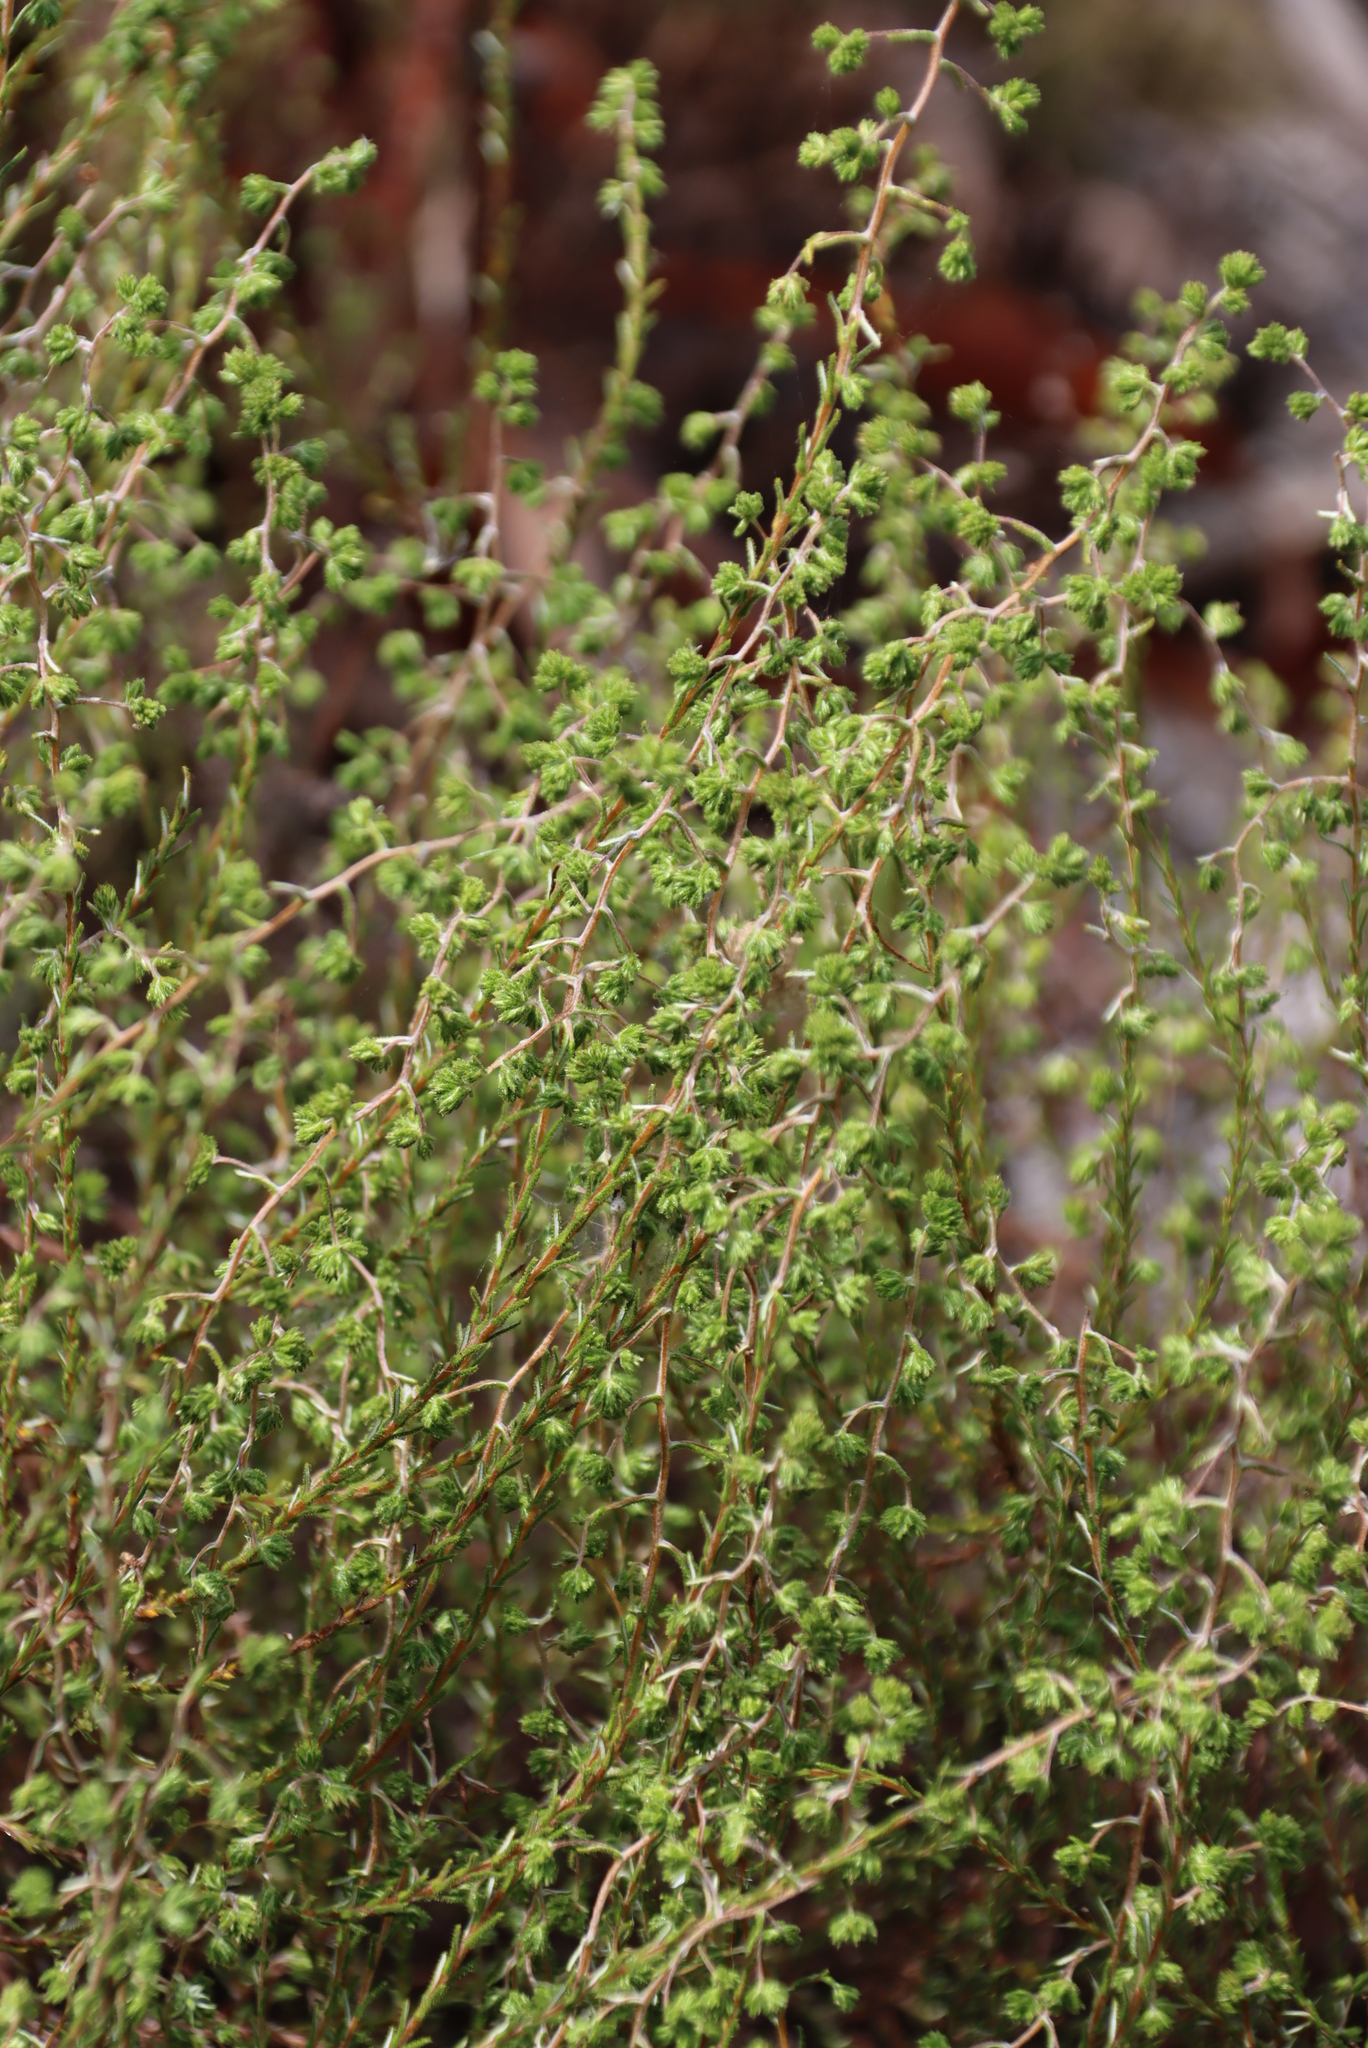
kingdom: Plantae
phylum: Tracheophyta
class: Magnoliopsida
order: Asterales
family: Asteraceae
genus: Myrovernix
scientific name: Myrovernix scaber
